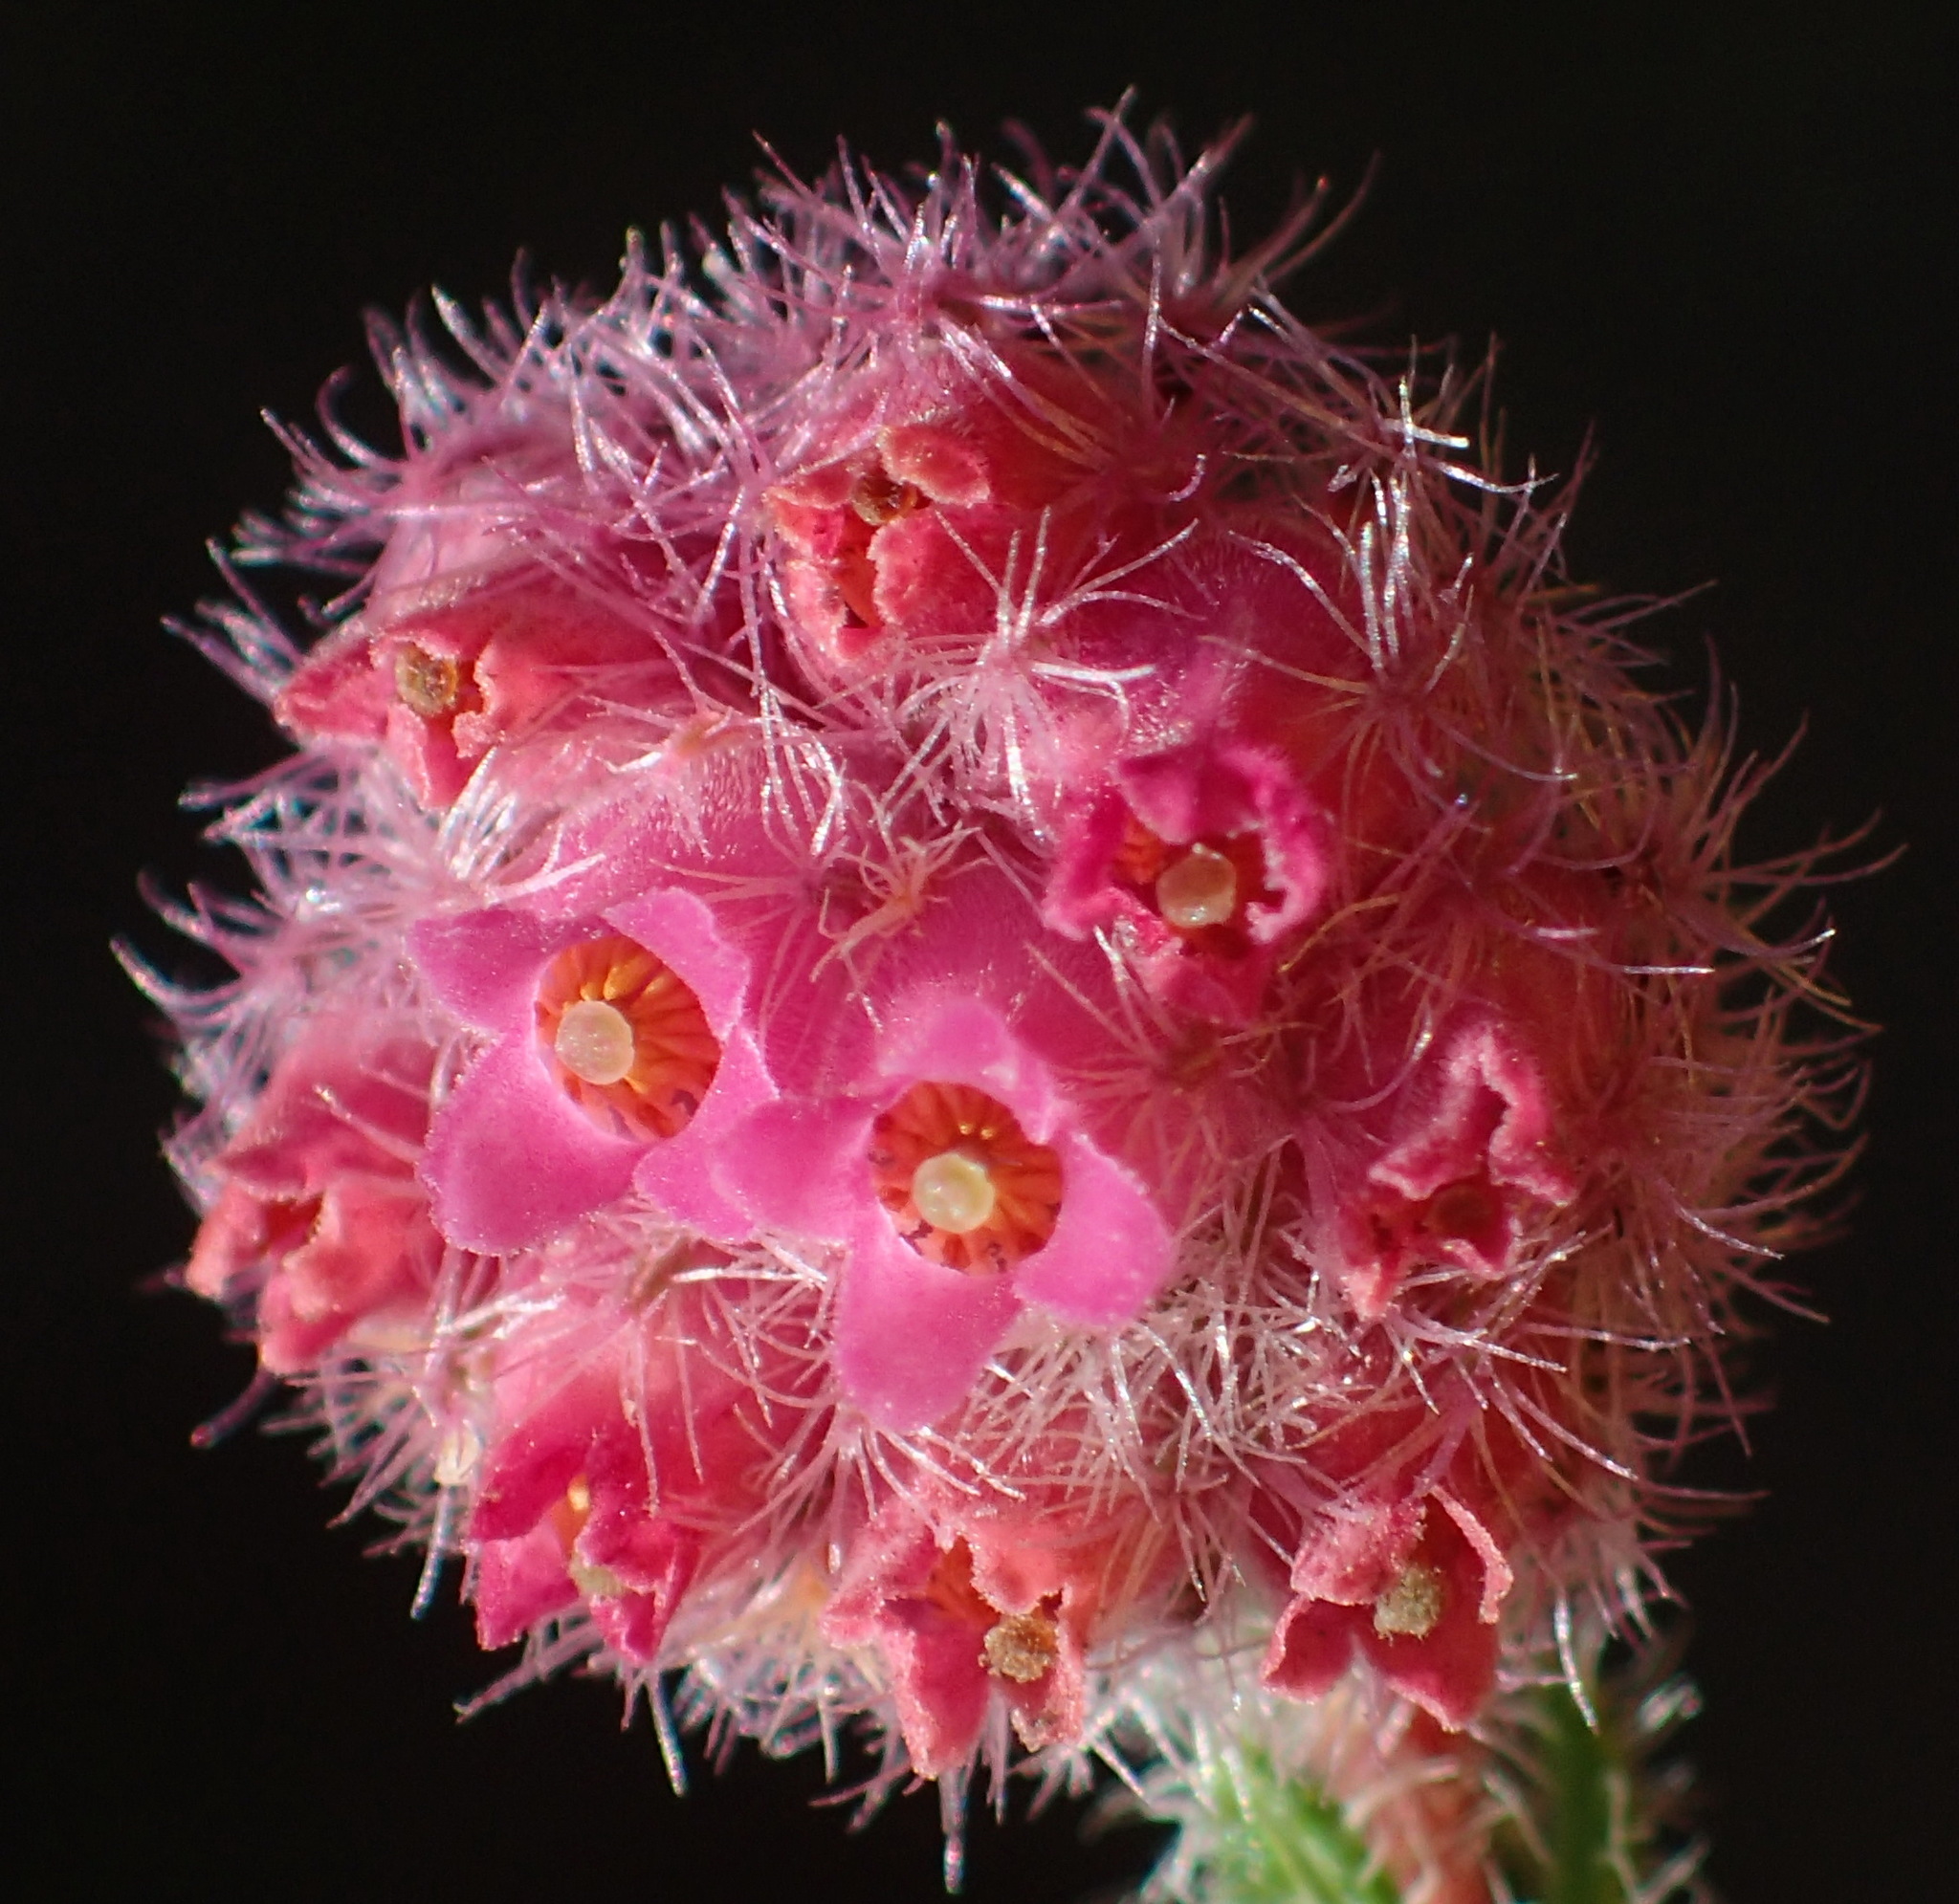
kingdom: Plantae
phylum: Tracheophyta
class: Magnoliopsida
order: Ericales
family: Ericaceae
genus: Erica
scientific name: Erica solandra
